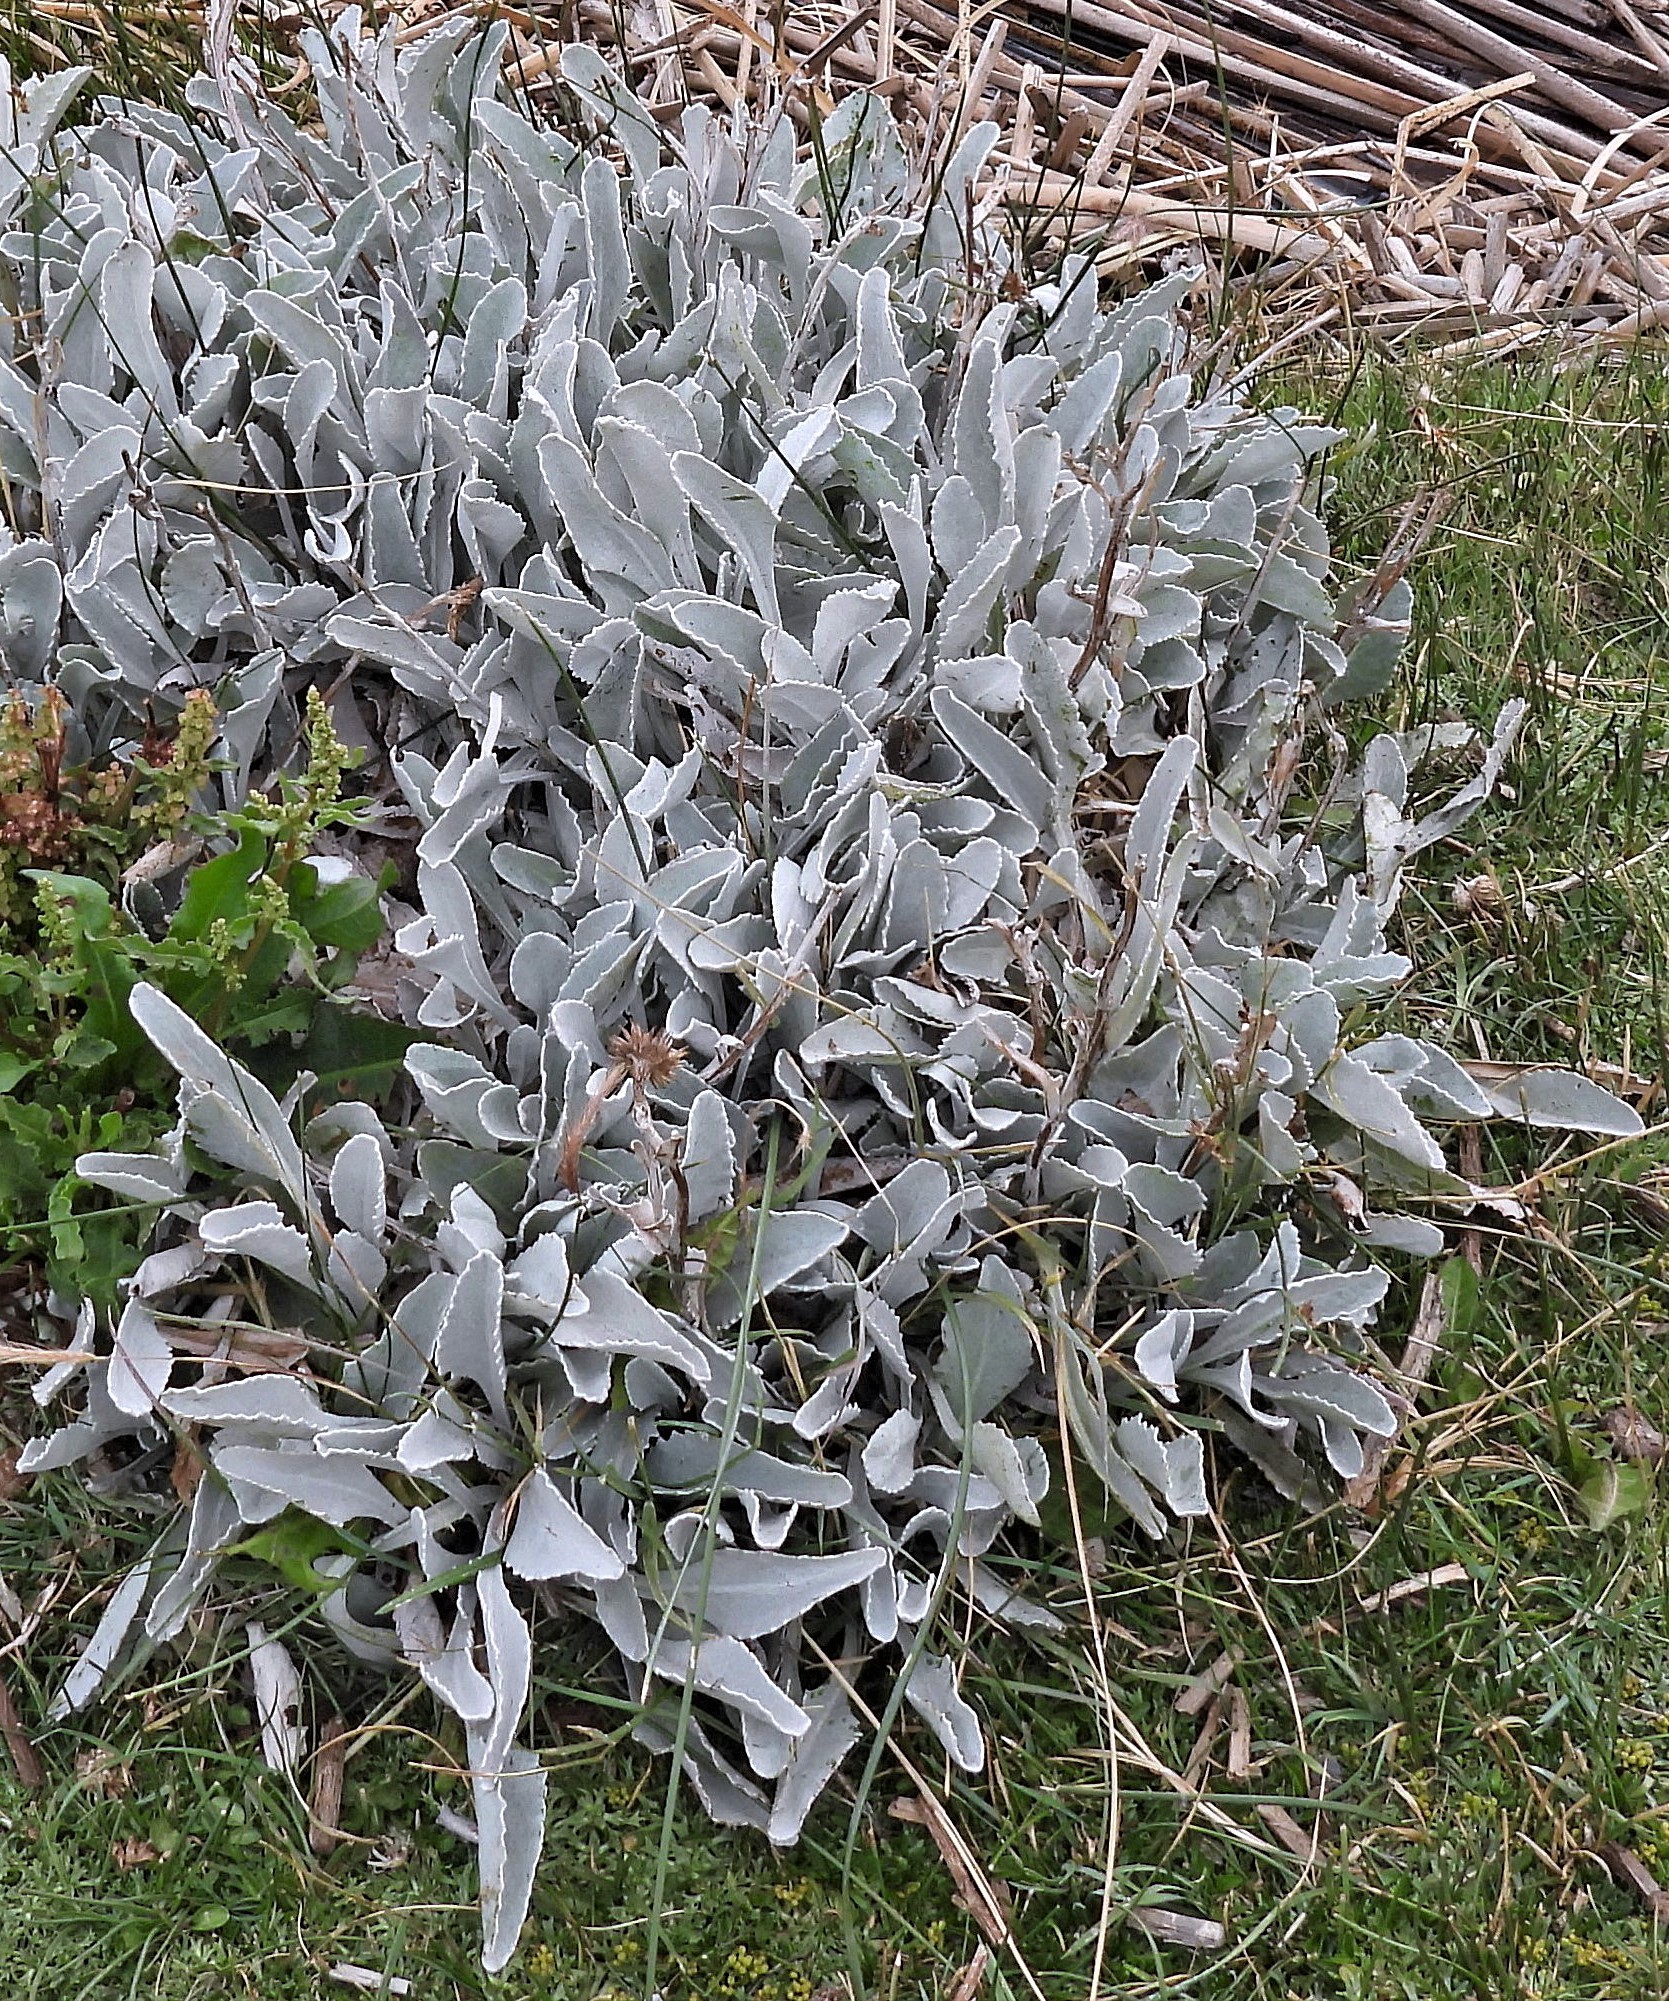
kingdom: Plantae
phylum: Tracheophyta
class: Magnoliopsida
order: Asterales
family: Asteraceae
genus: Senecio
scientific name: Senecio gilliesii
